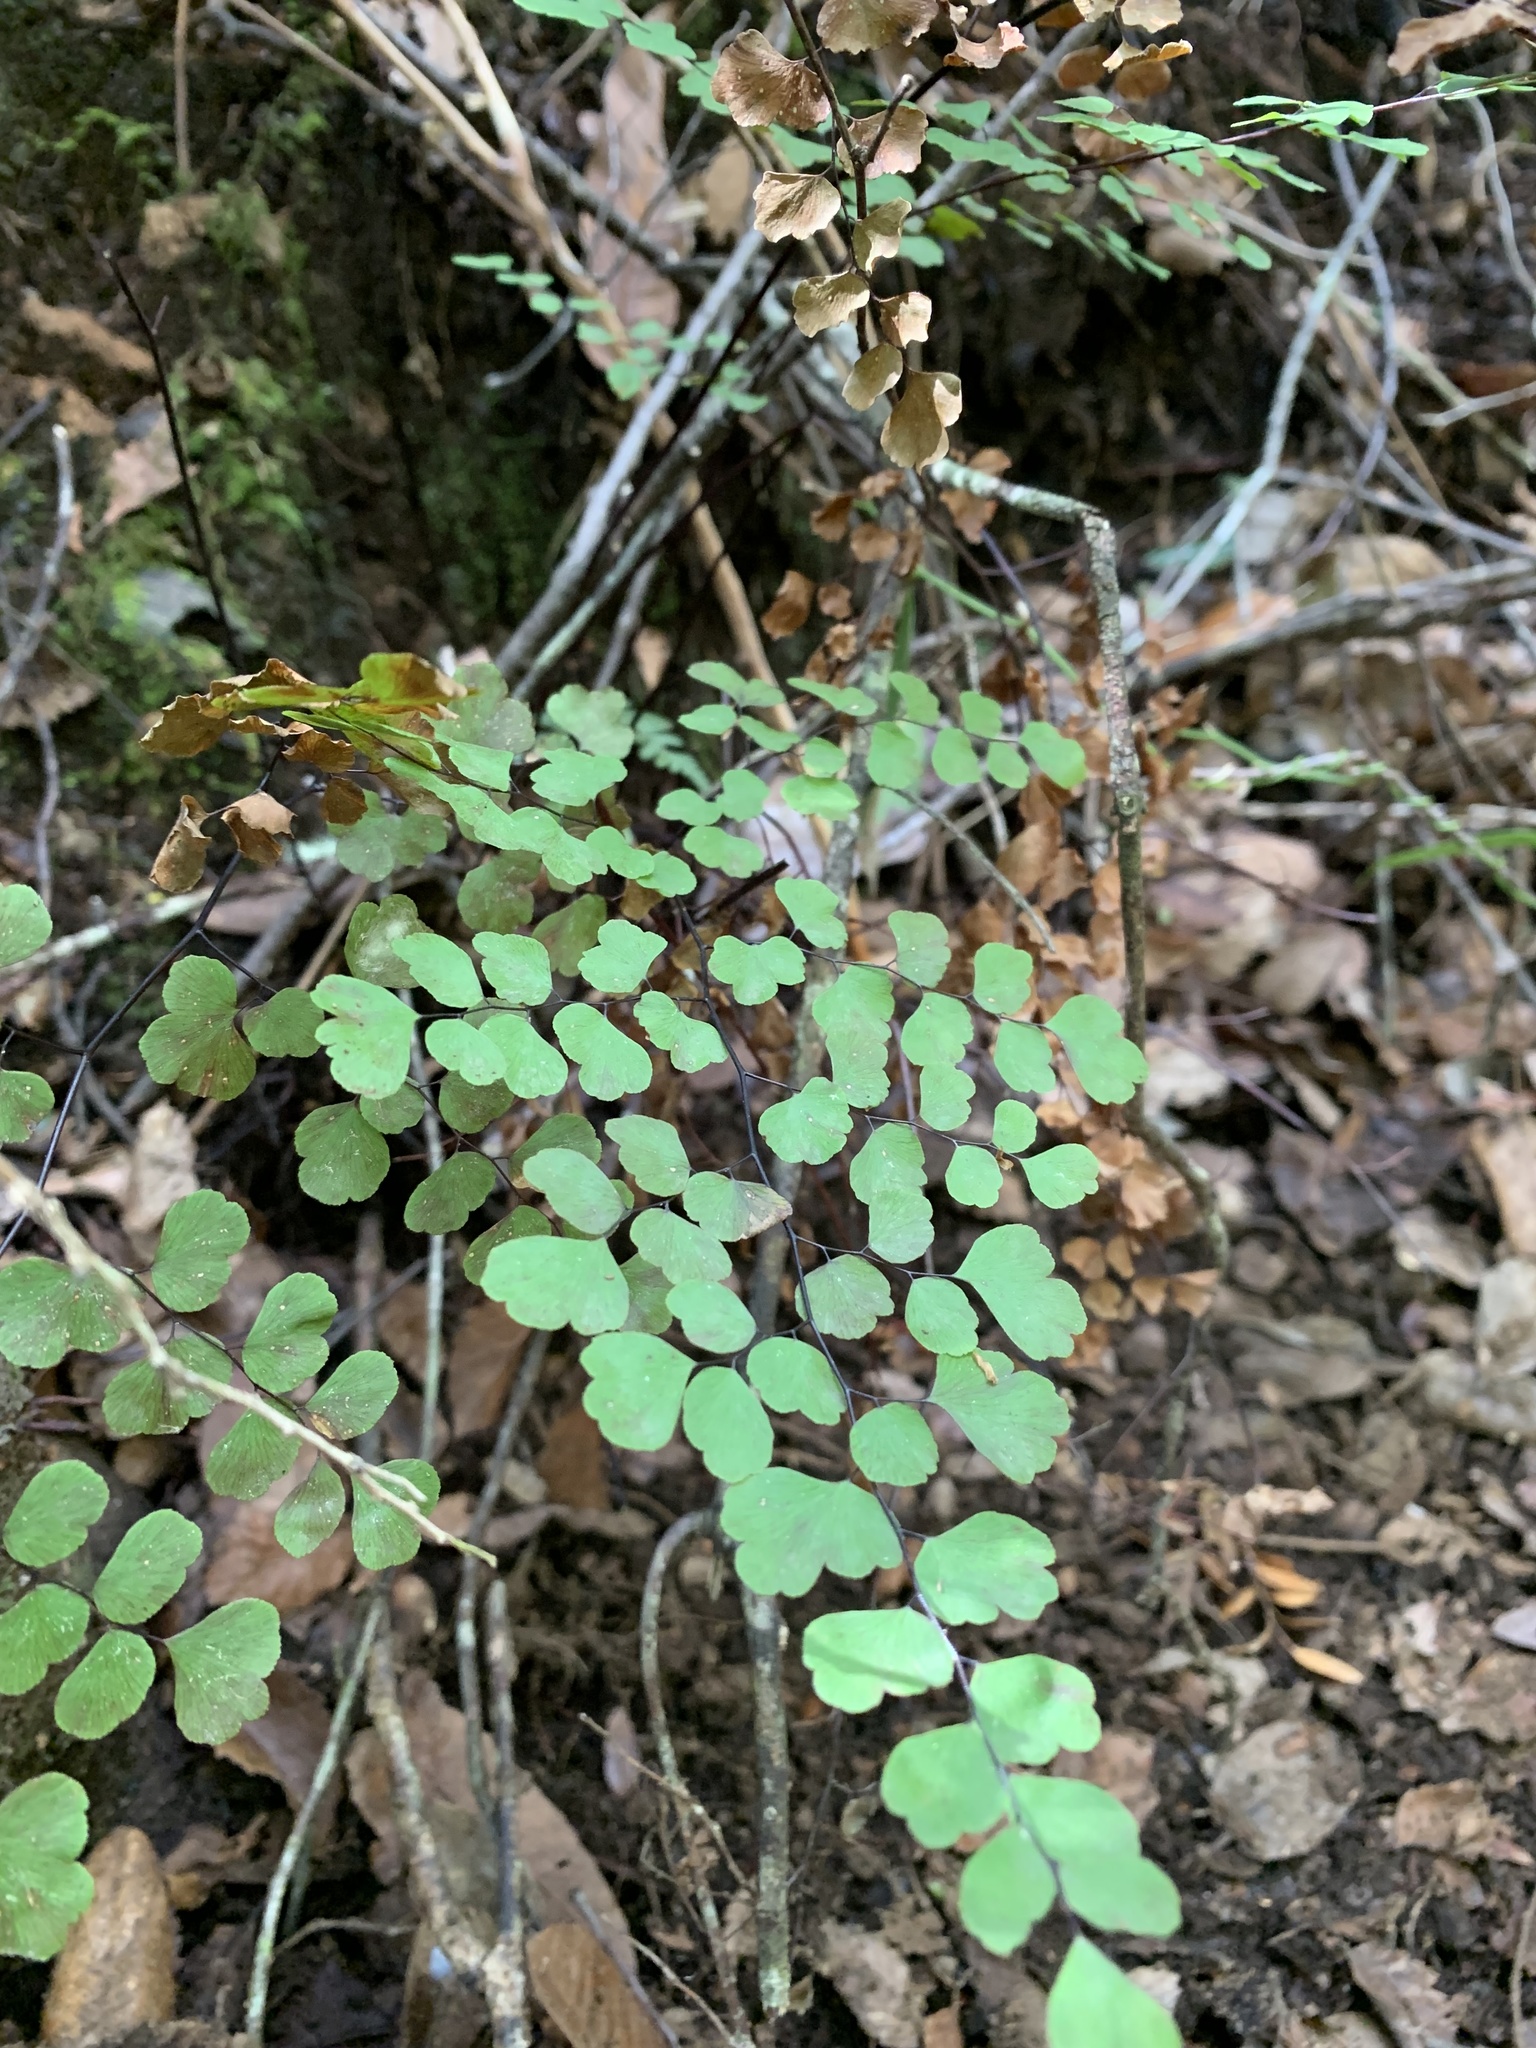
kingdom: Plantae
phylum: Tracheophyta
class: Polypodiopsida
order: Polypodiales
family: Pteridaceae
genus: Adiantum
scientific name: Adiantum chilense
